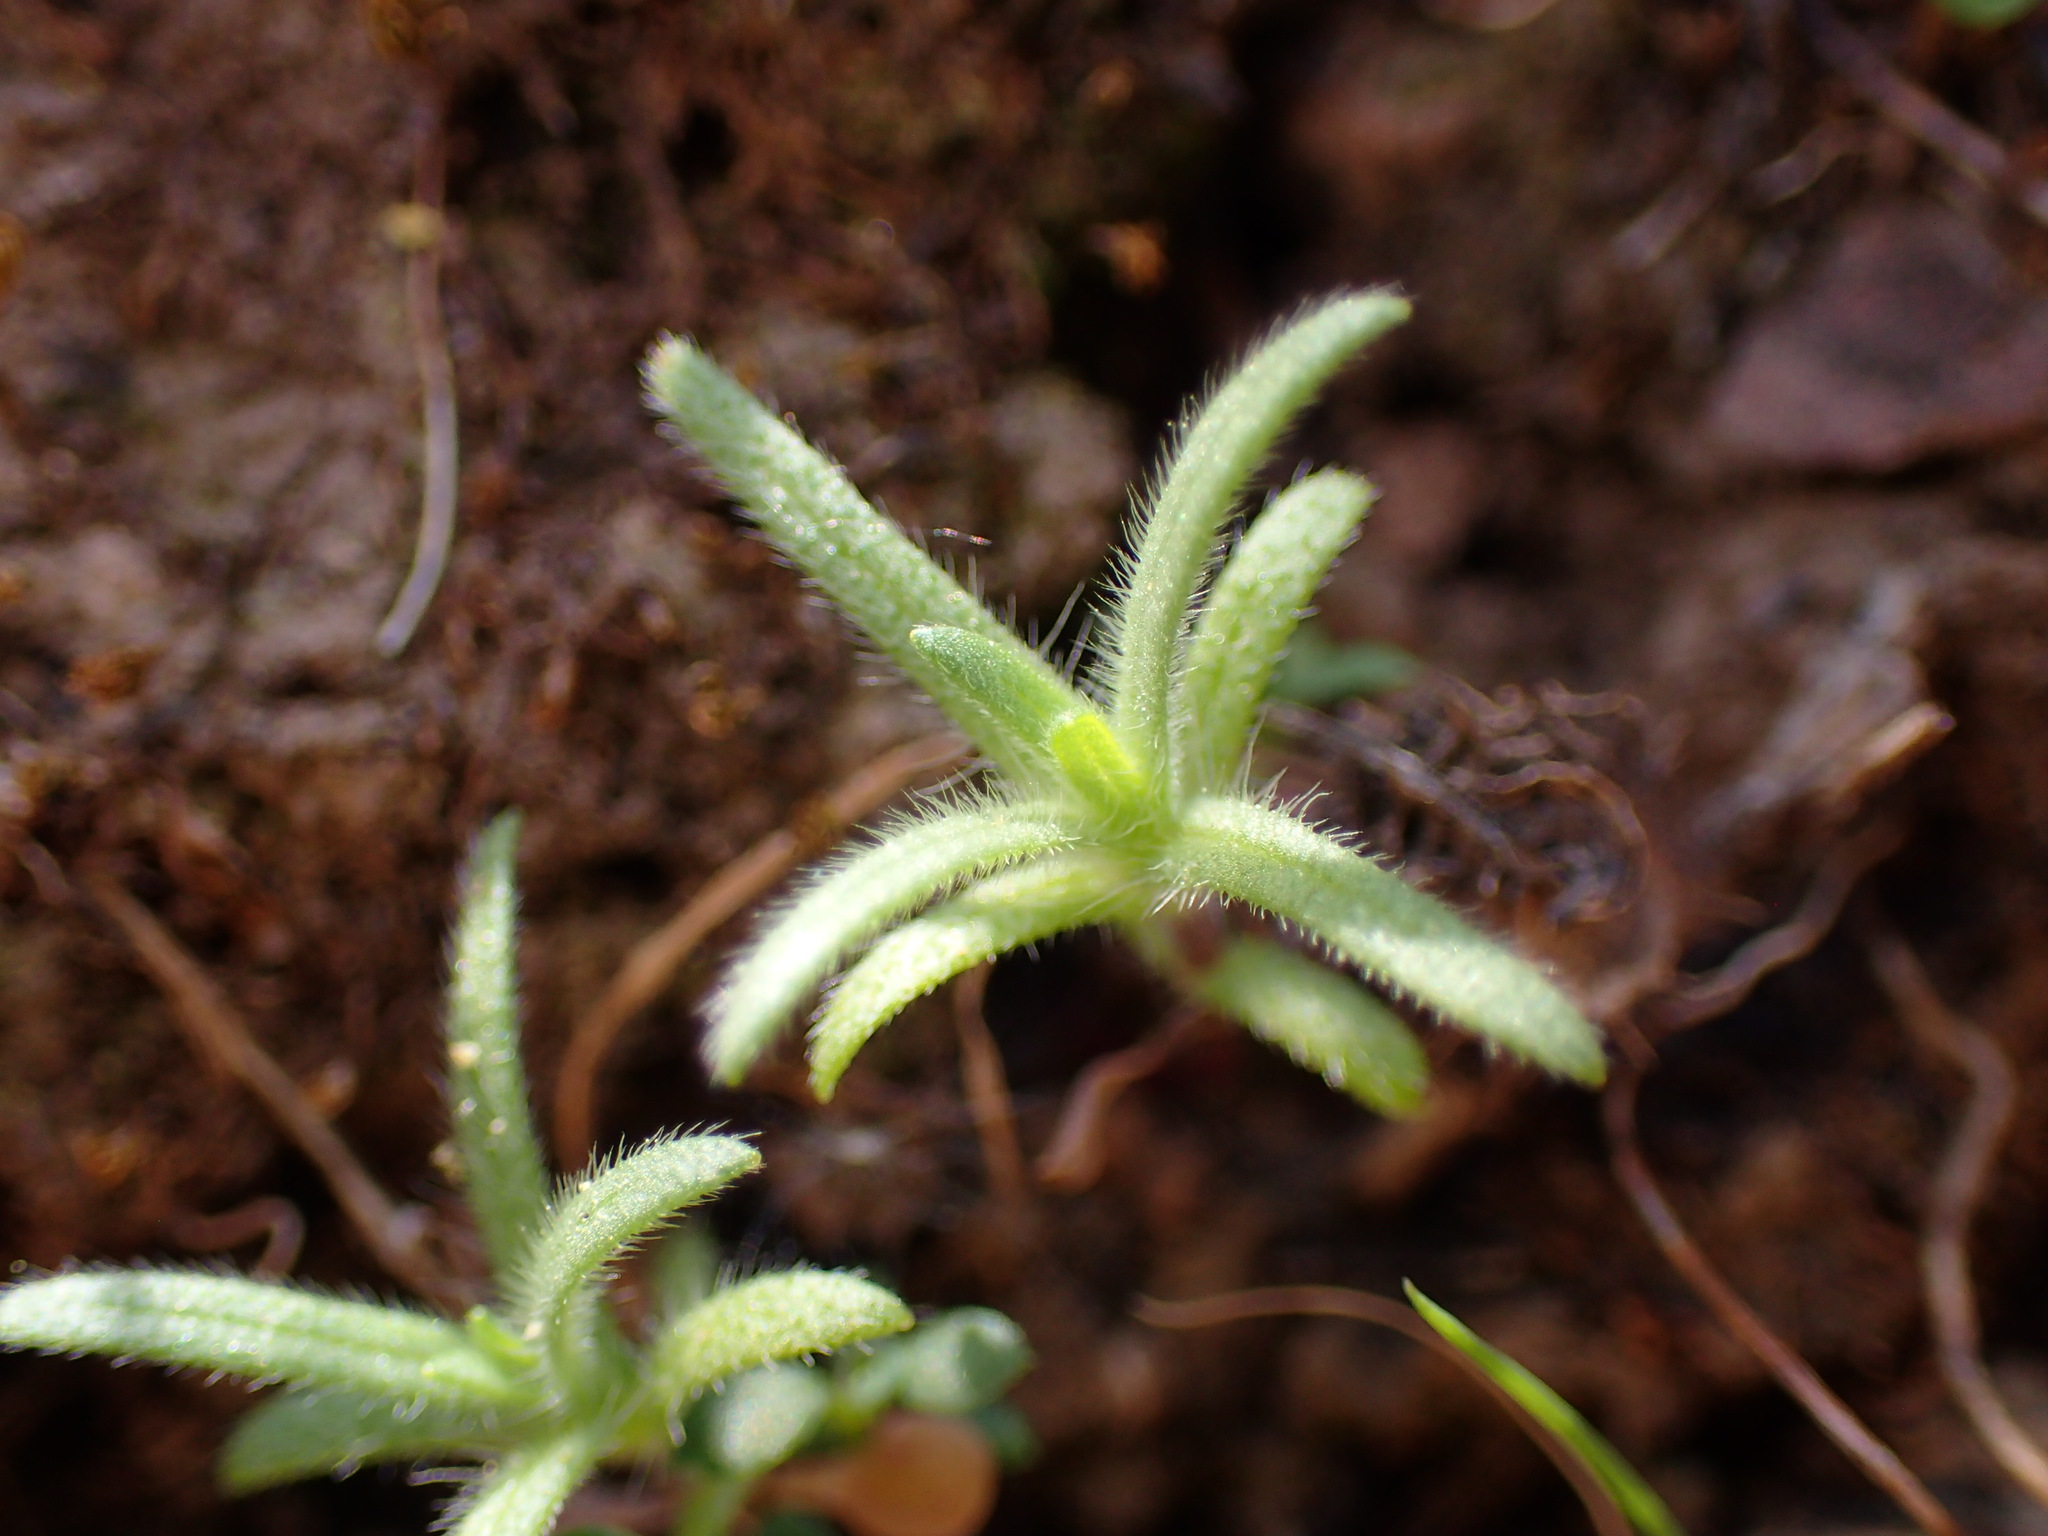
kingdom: Plantae
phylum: Tracheophyta
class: Magnoliopsida
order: Asterales
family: Asteraceae
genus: Madia
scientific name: Madia exigua
